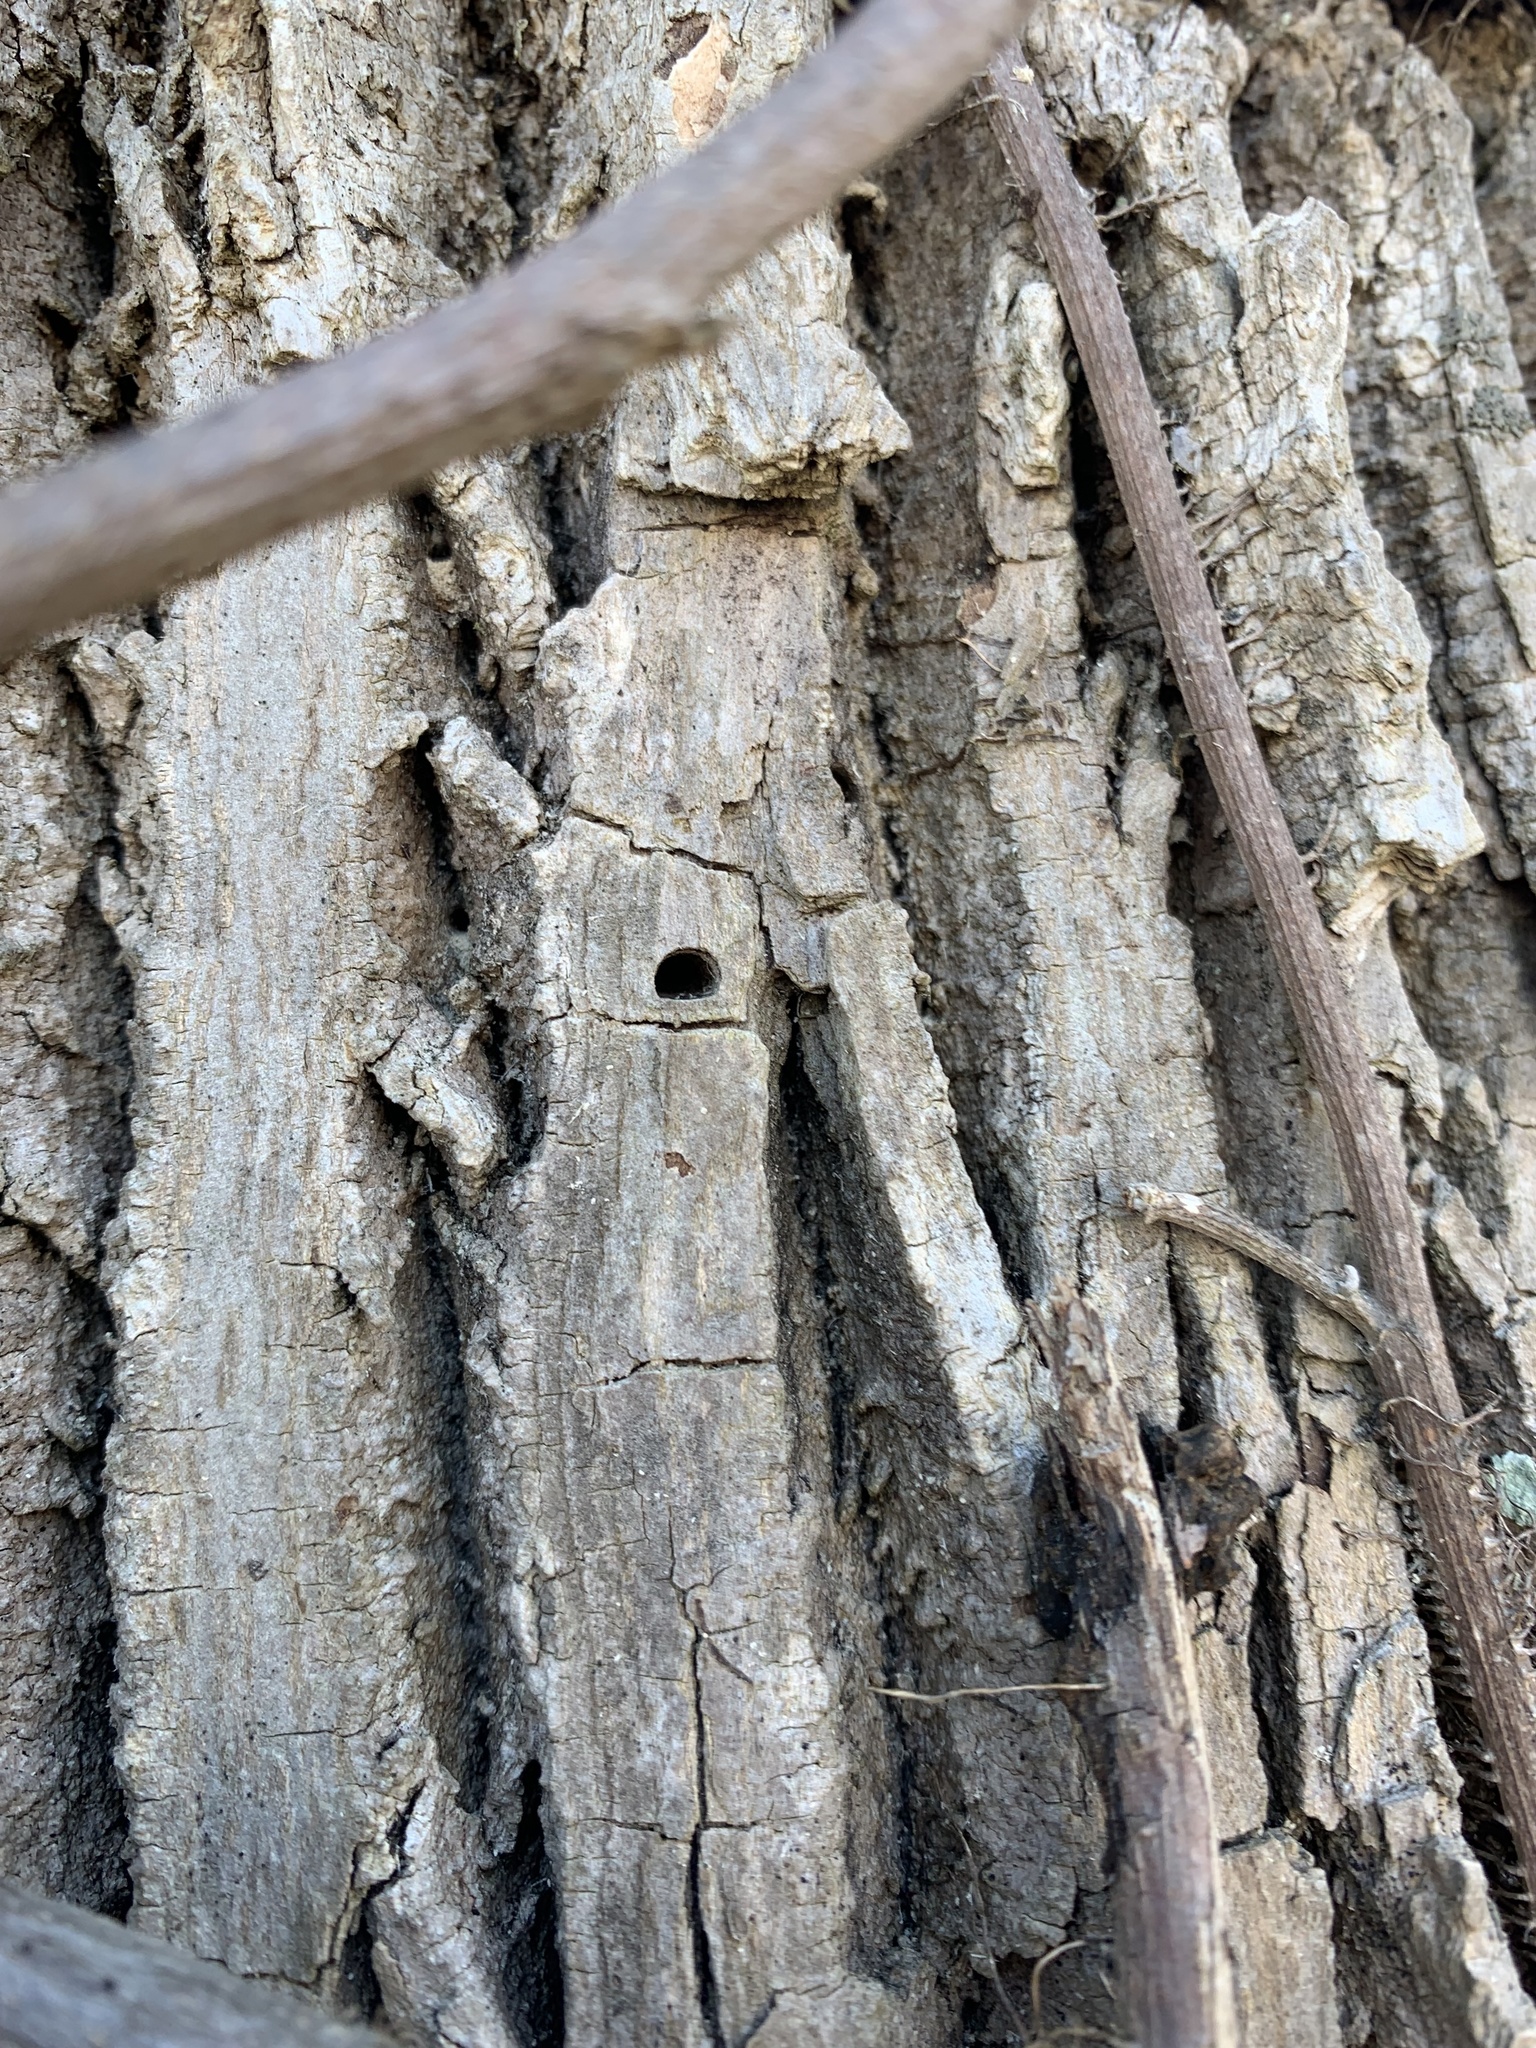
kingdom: Animalia
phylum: Arthropoda
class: Insecta
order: Coleoptera
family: Buprestidae
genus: Agrilus
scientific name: Agrilus planipennis
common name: Emerald ash borer
